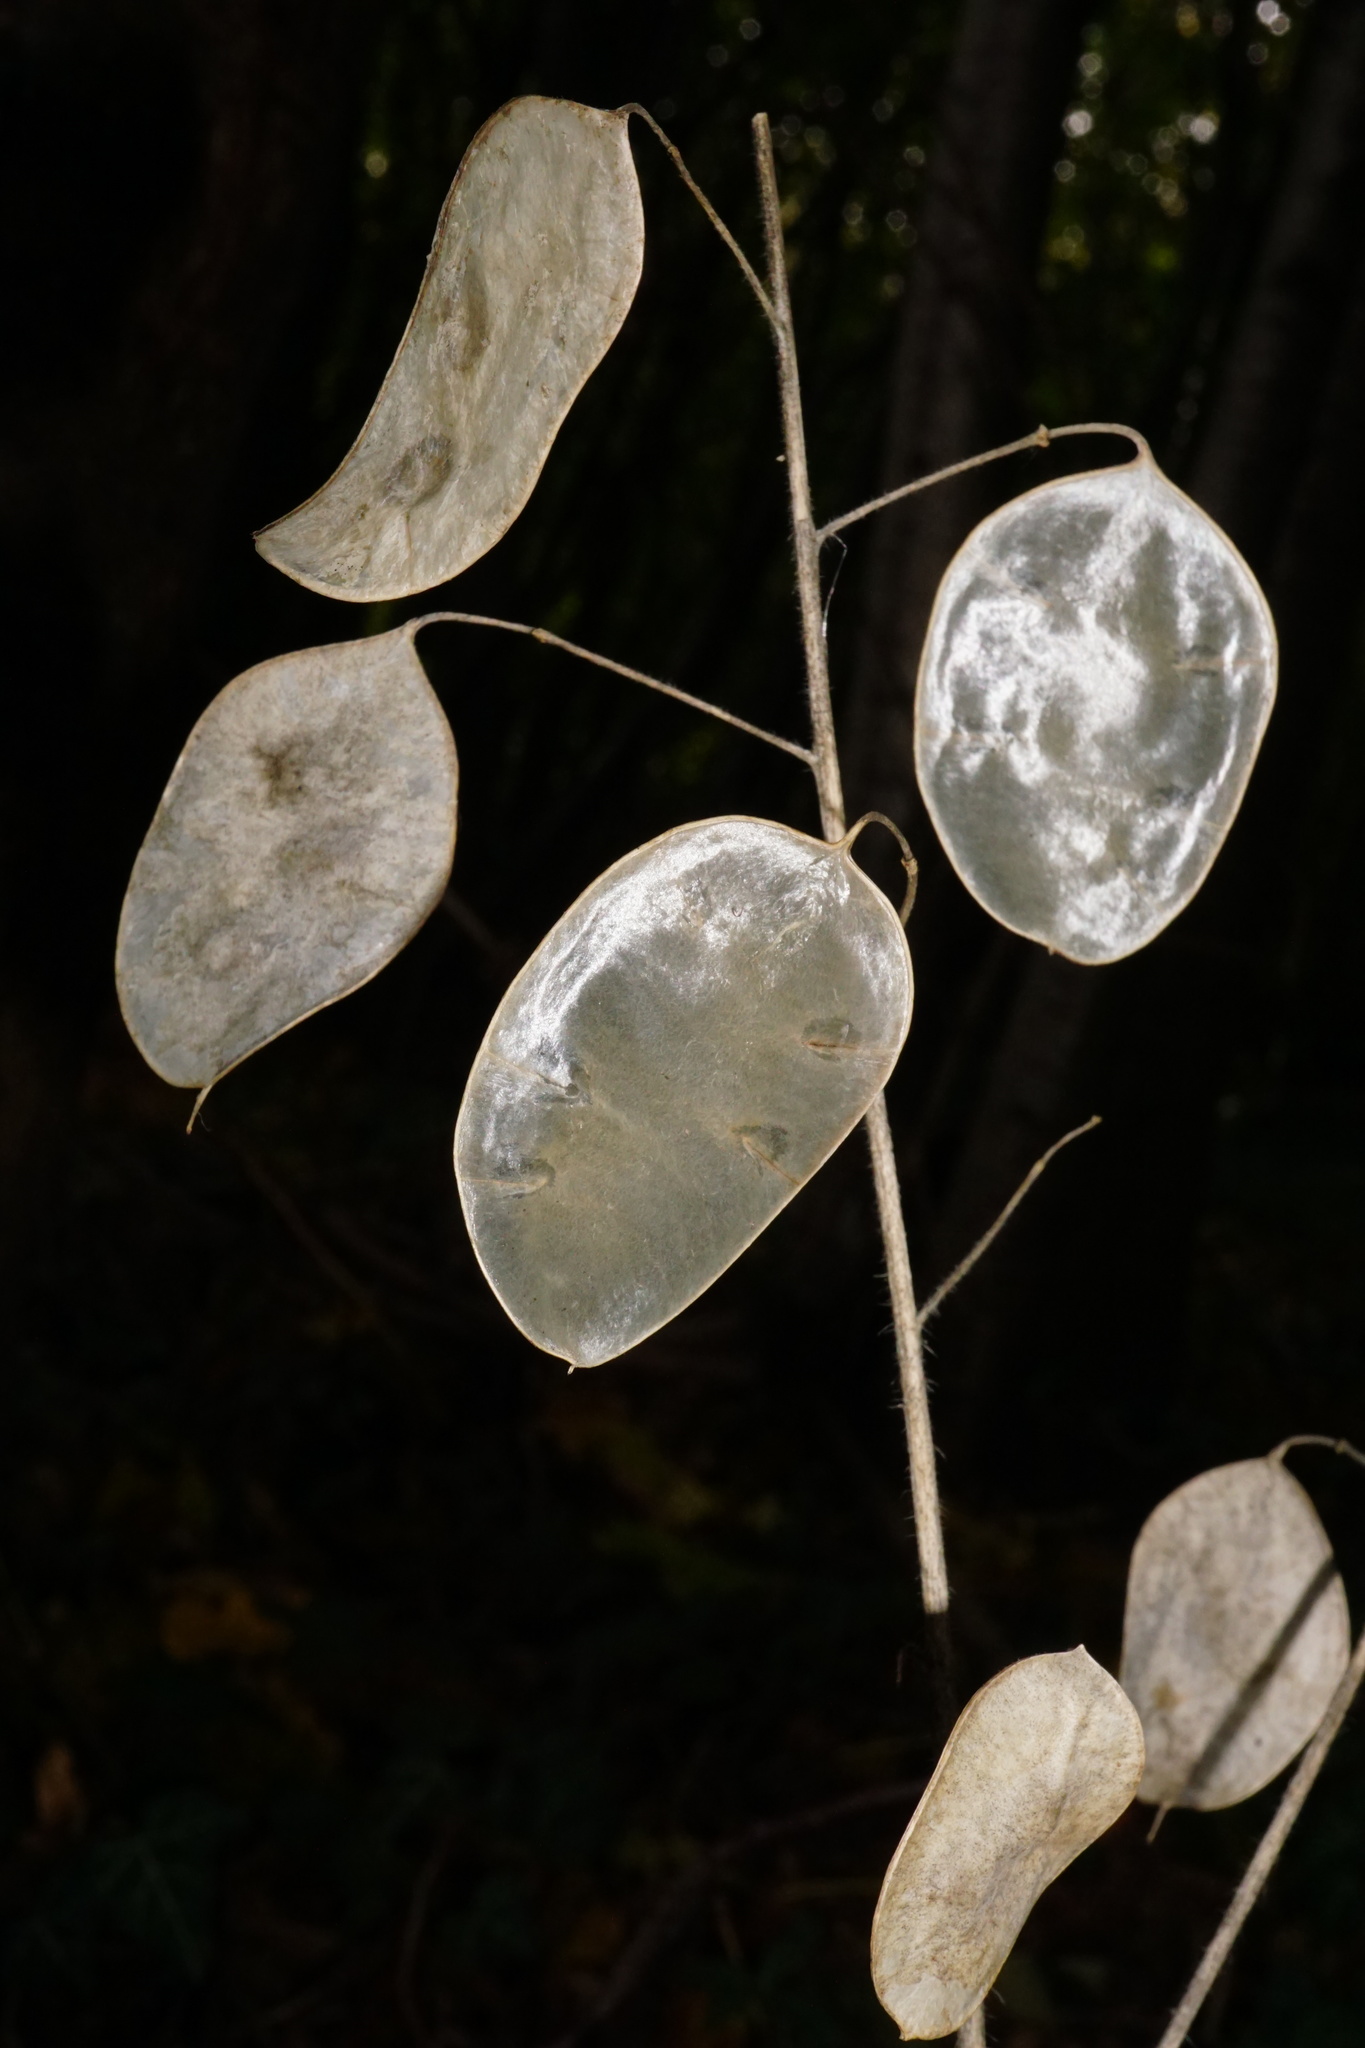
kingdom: Plantae
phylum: Tracheophyta
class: Magnoliopsida
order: Brassicales
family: Brassicaceae
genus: Lunaria
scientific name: Lunaria annua
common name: Honesty
